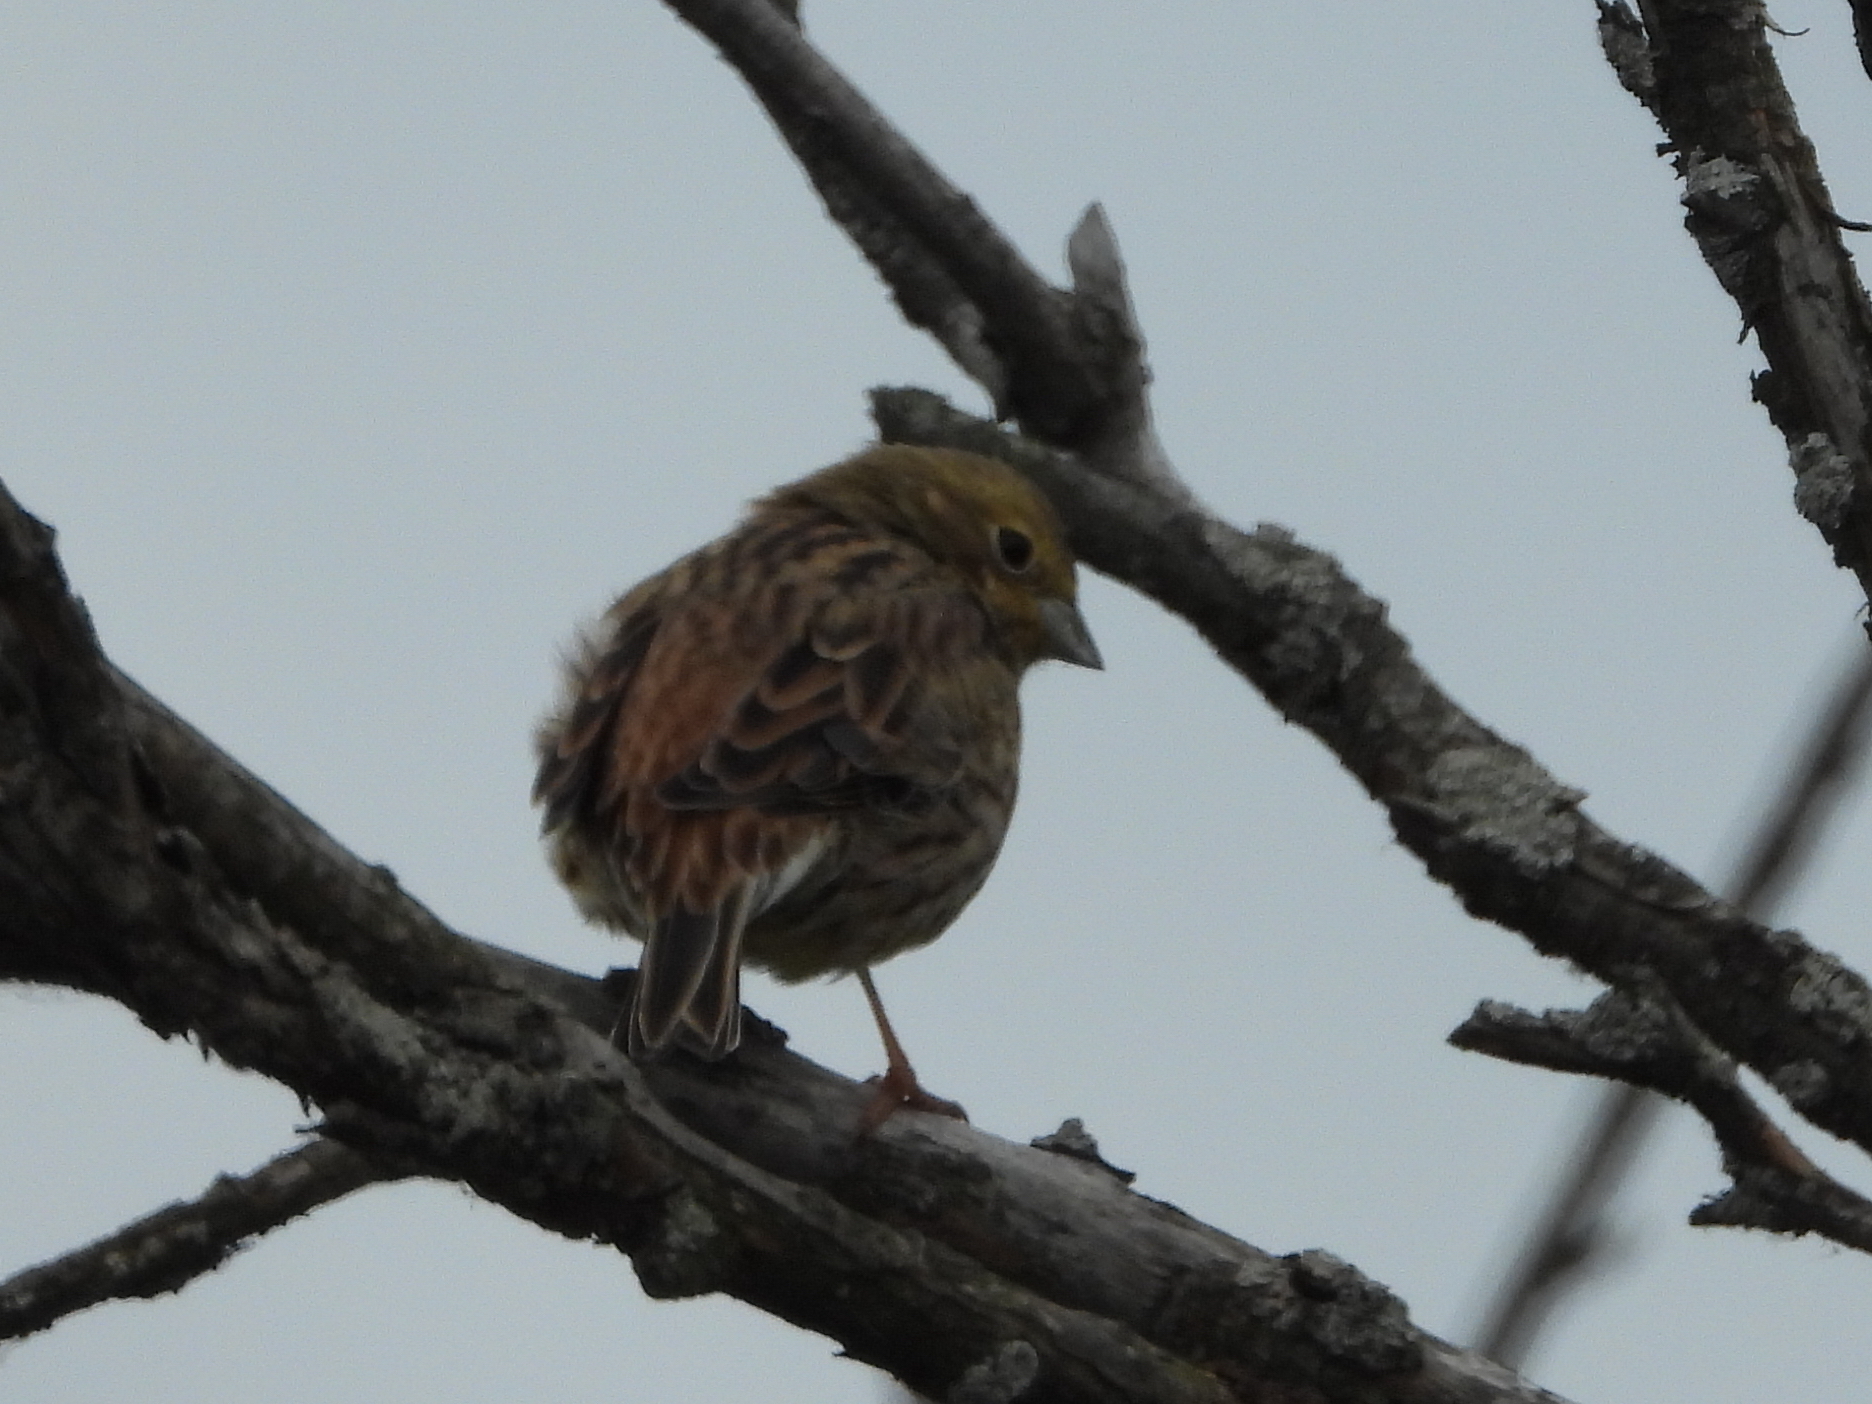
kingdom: Animalia
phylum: Chordata
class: Aves
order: Passeriformes
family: Emberizidae
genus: Emberiza
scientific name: Emberiza citrinella
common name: Yellowhammer
